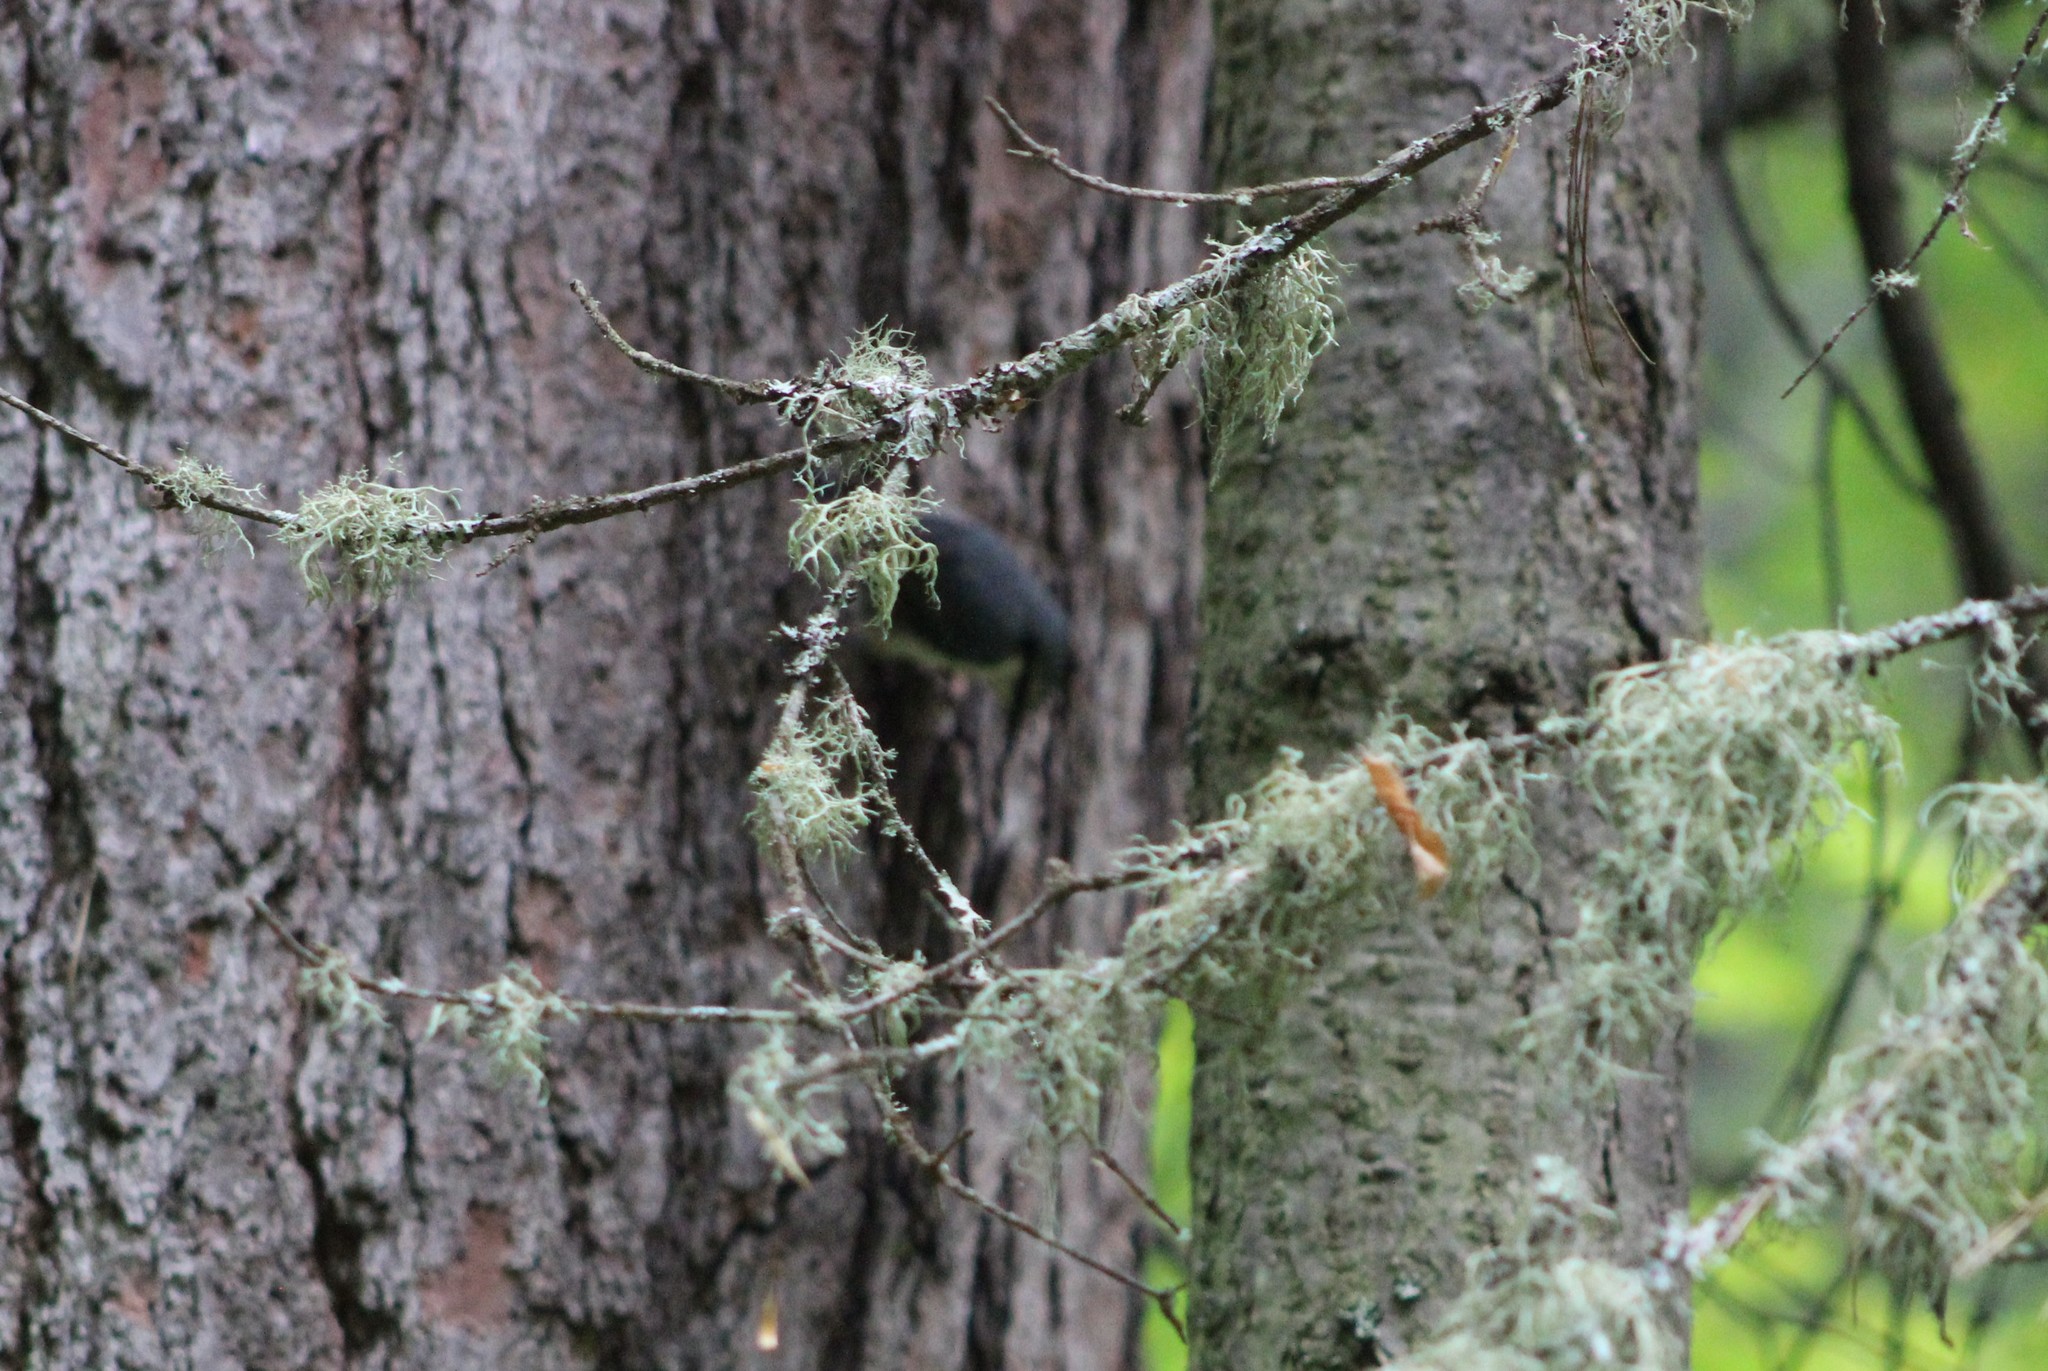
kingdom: Animalia
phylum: Chordata
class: Aves
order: Passeriformes
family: Sittidae
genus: Sitta
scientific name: Sitta europaea
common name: Eurasian nuthatch
